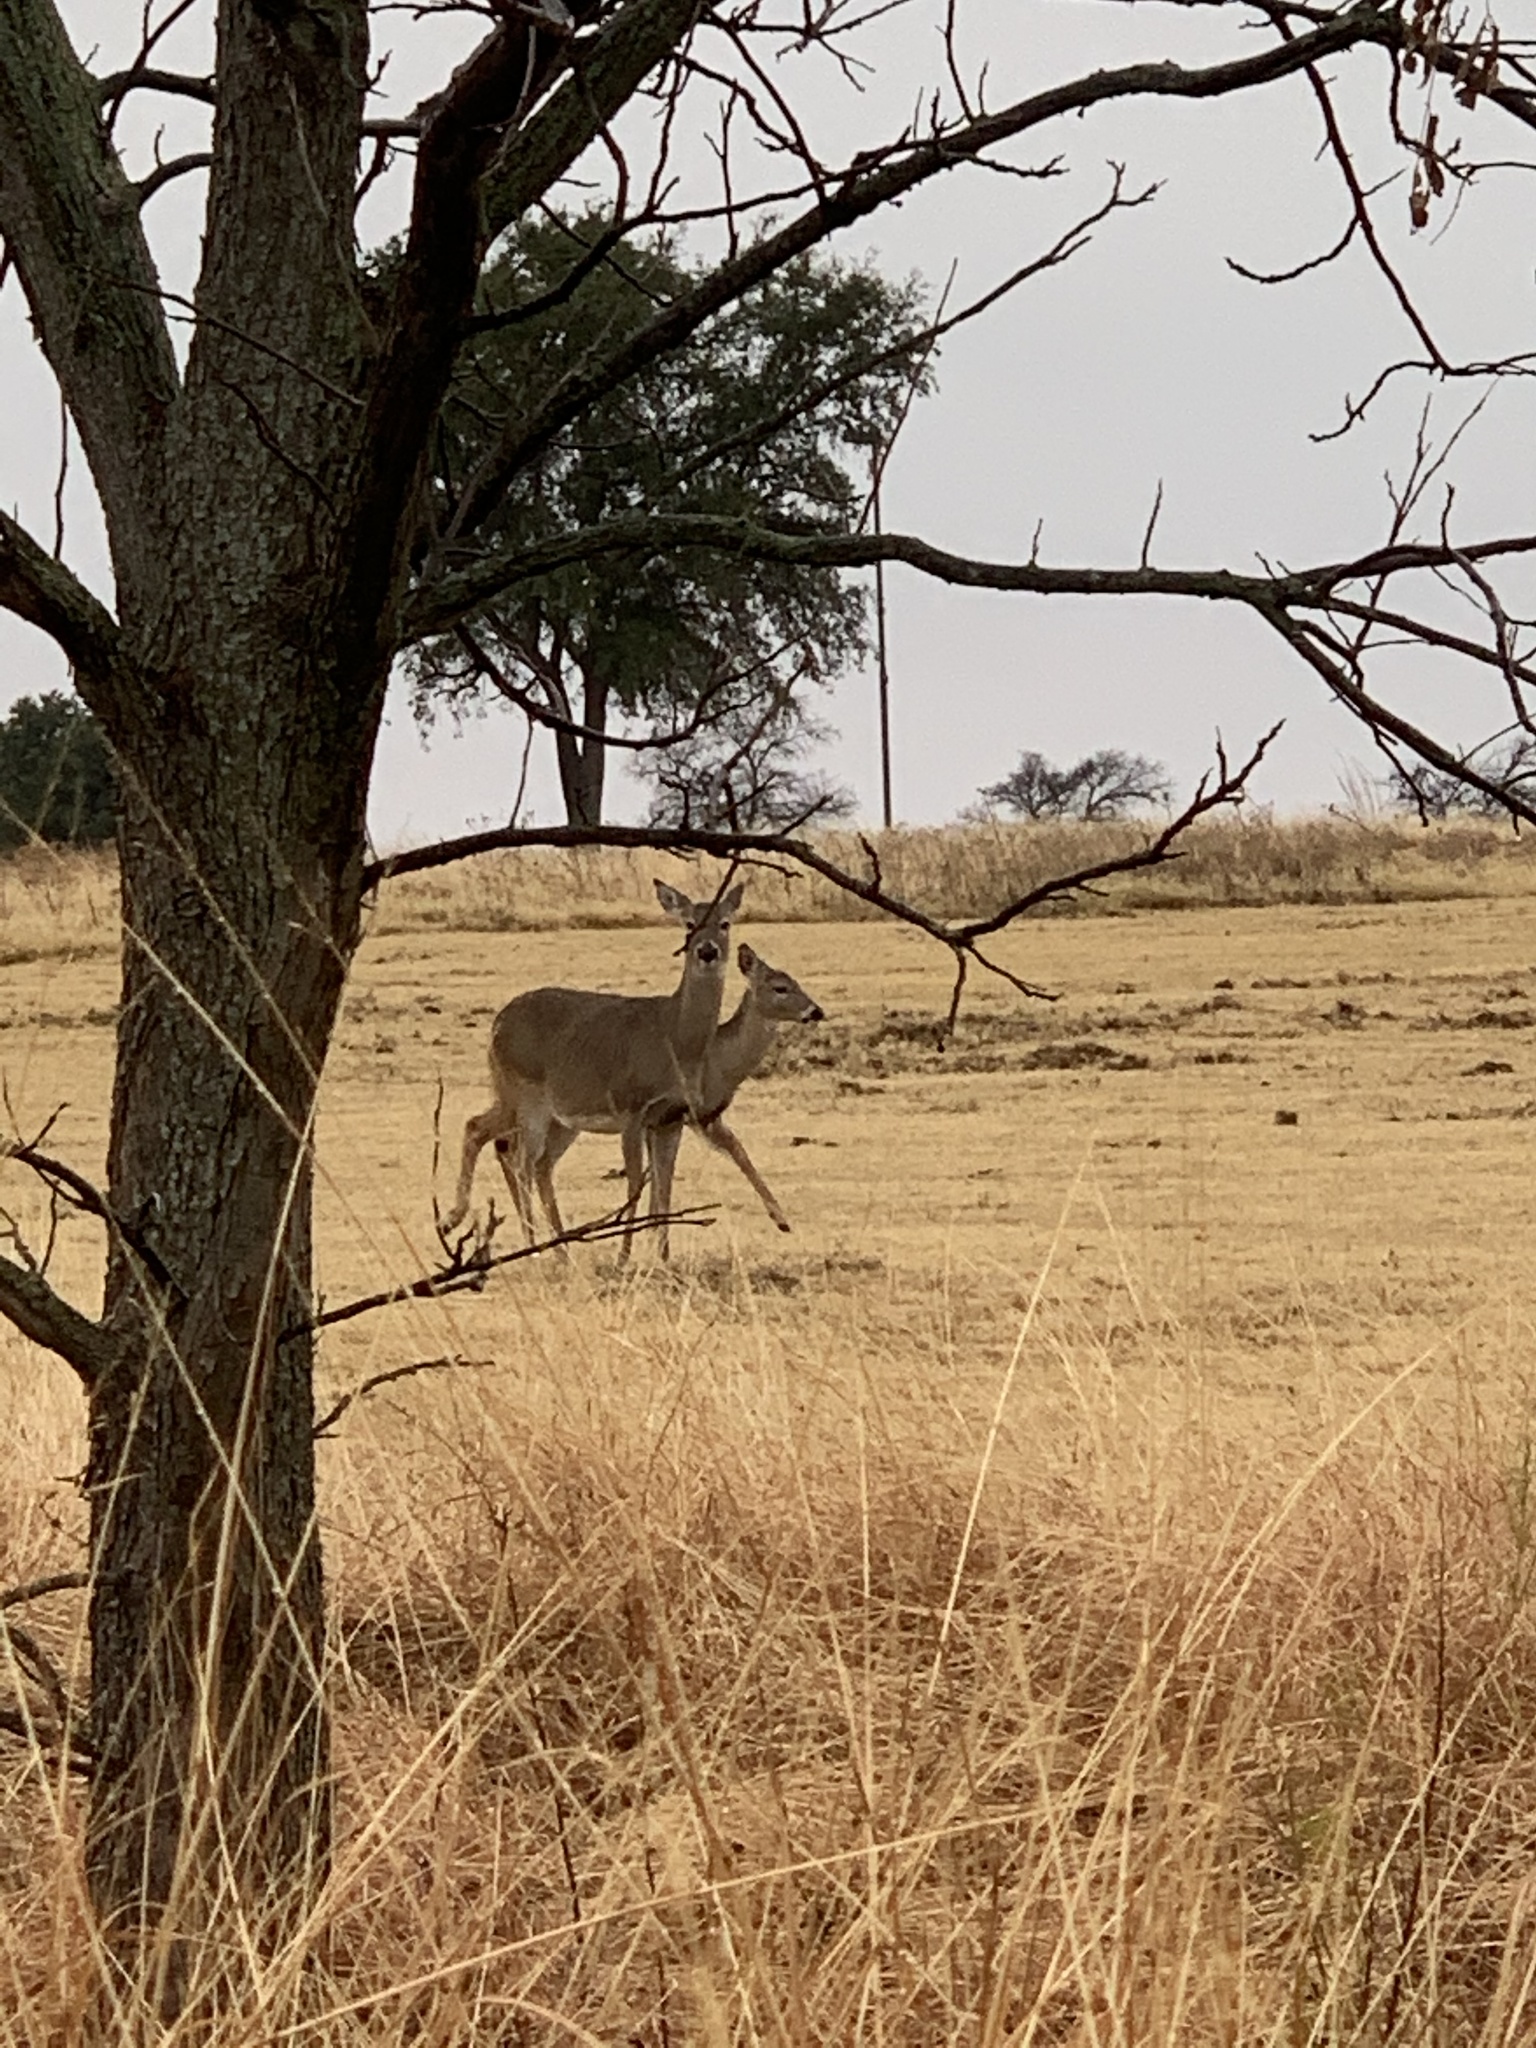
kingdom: Animalia
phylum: Chordata
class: Mammalia
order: Artiodactyla
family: Cervidae
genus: Odocoileus
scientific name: Odocoileus virginianus
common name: White-tailed deer
